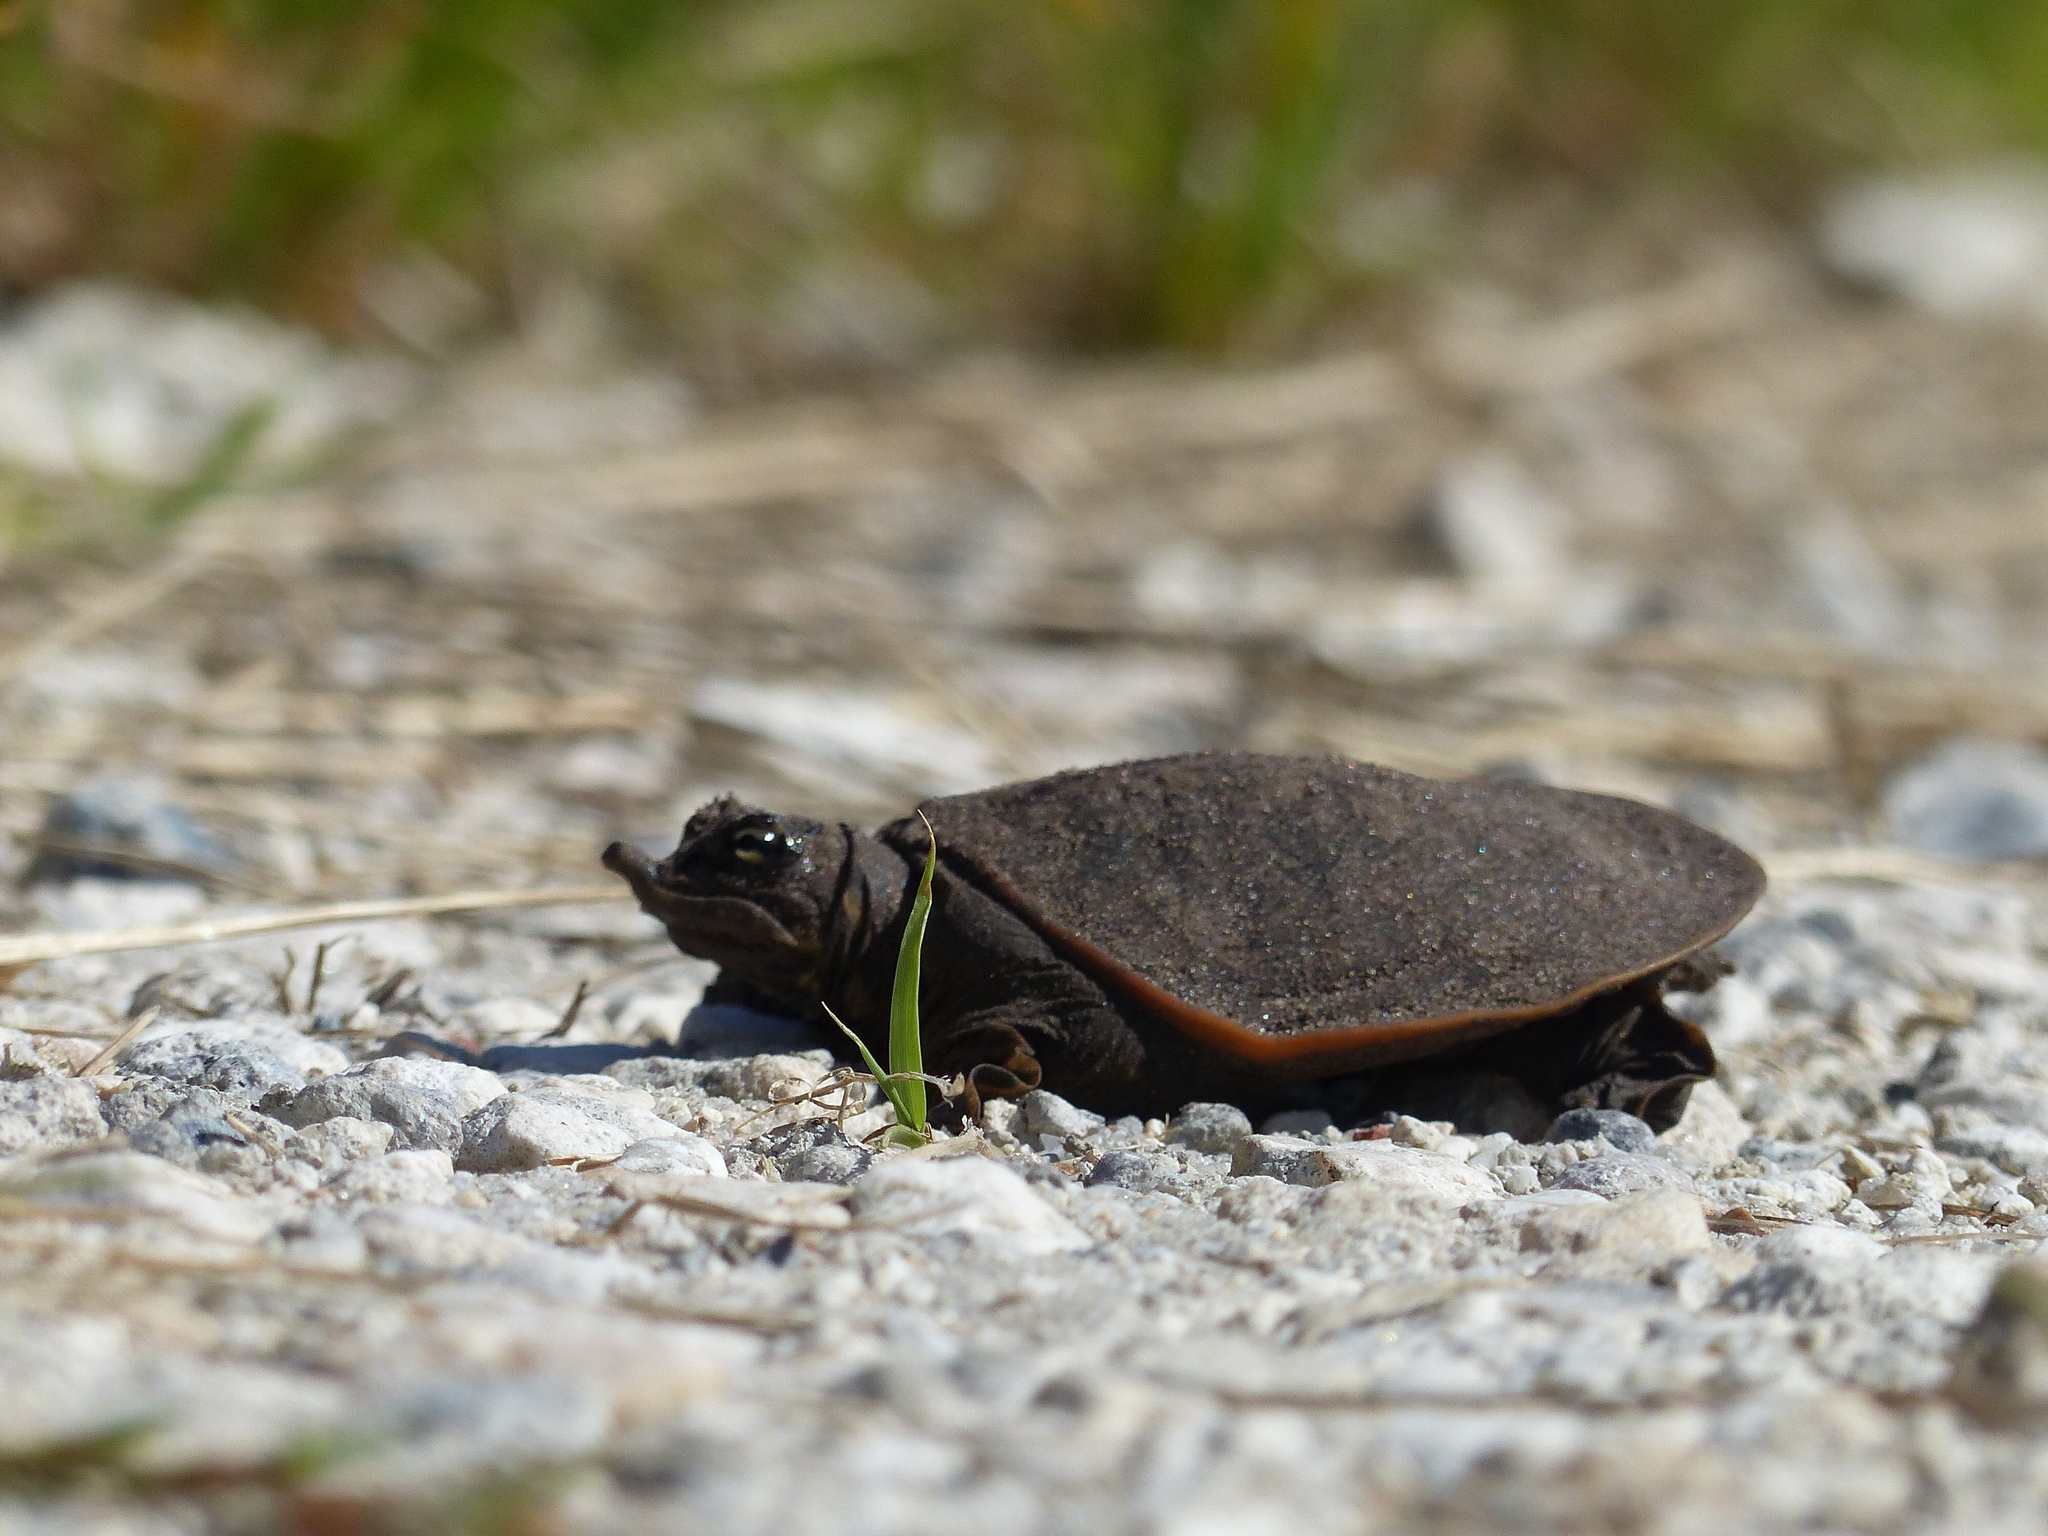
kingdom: Animalia
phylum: Chordata
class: Testudines
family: Trionychidae
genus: Apalone
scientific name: Apalone ferox
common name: Florida softshell turtle
